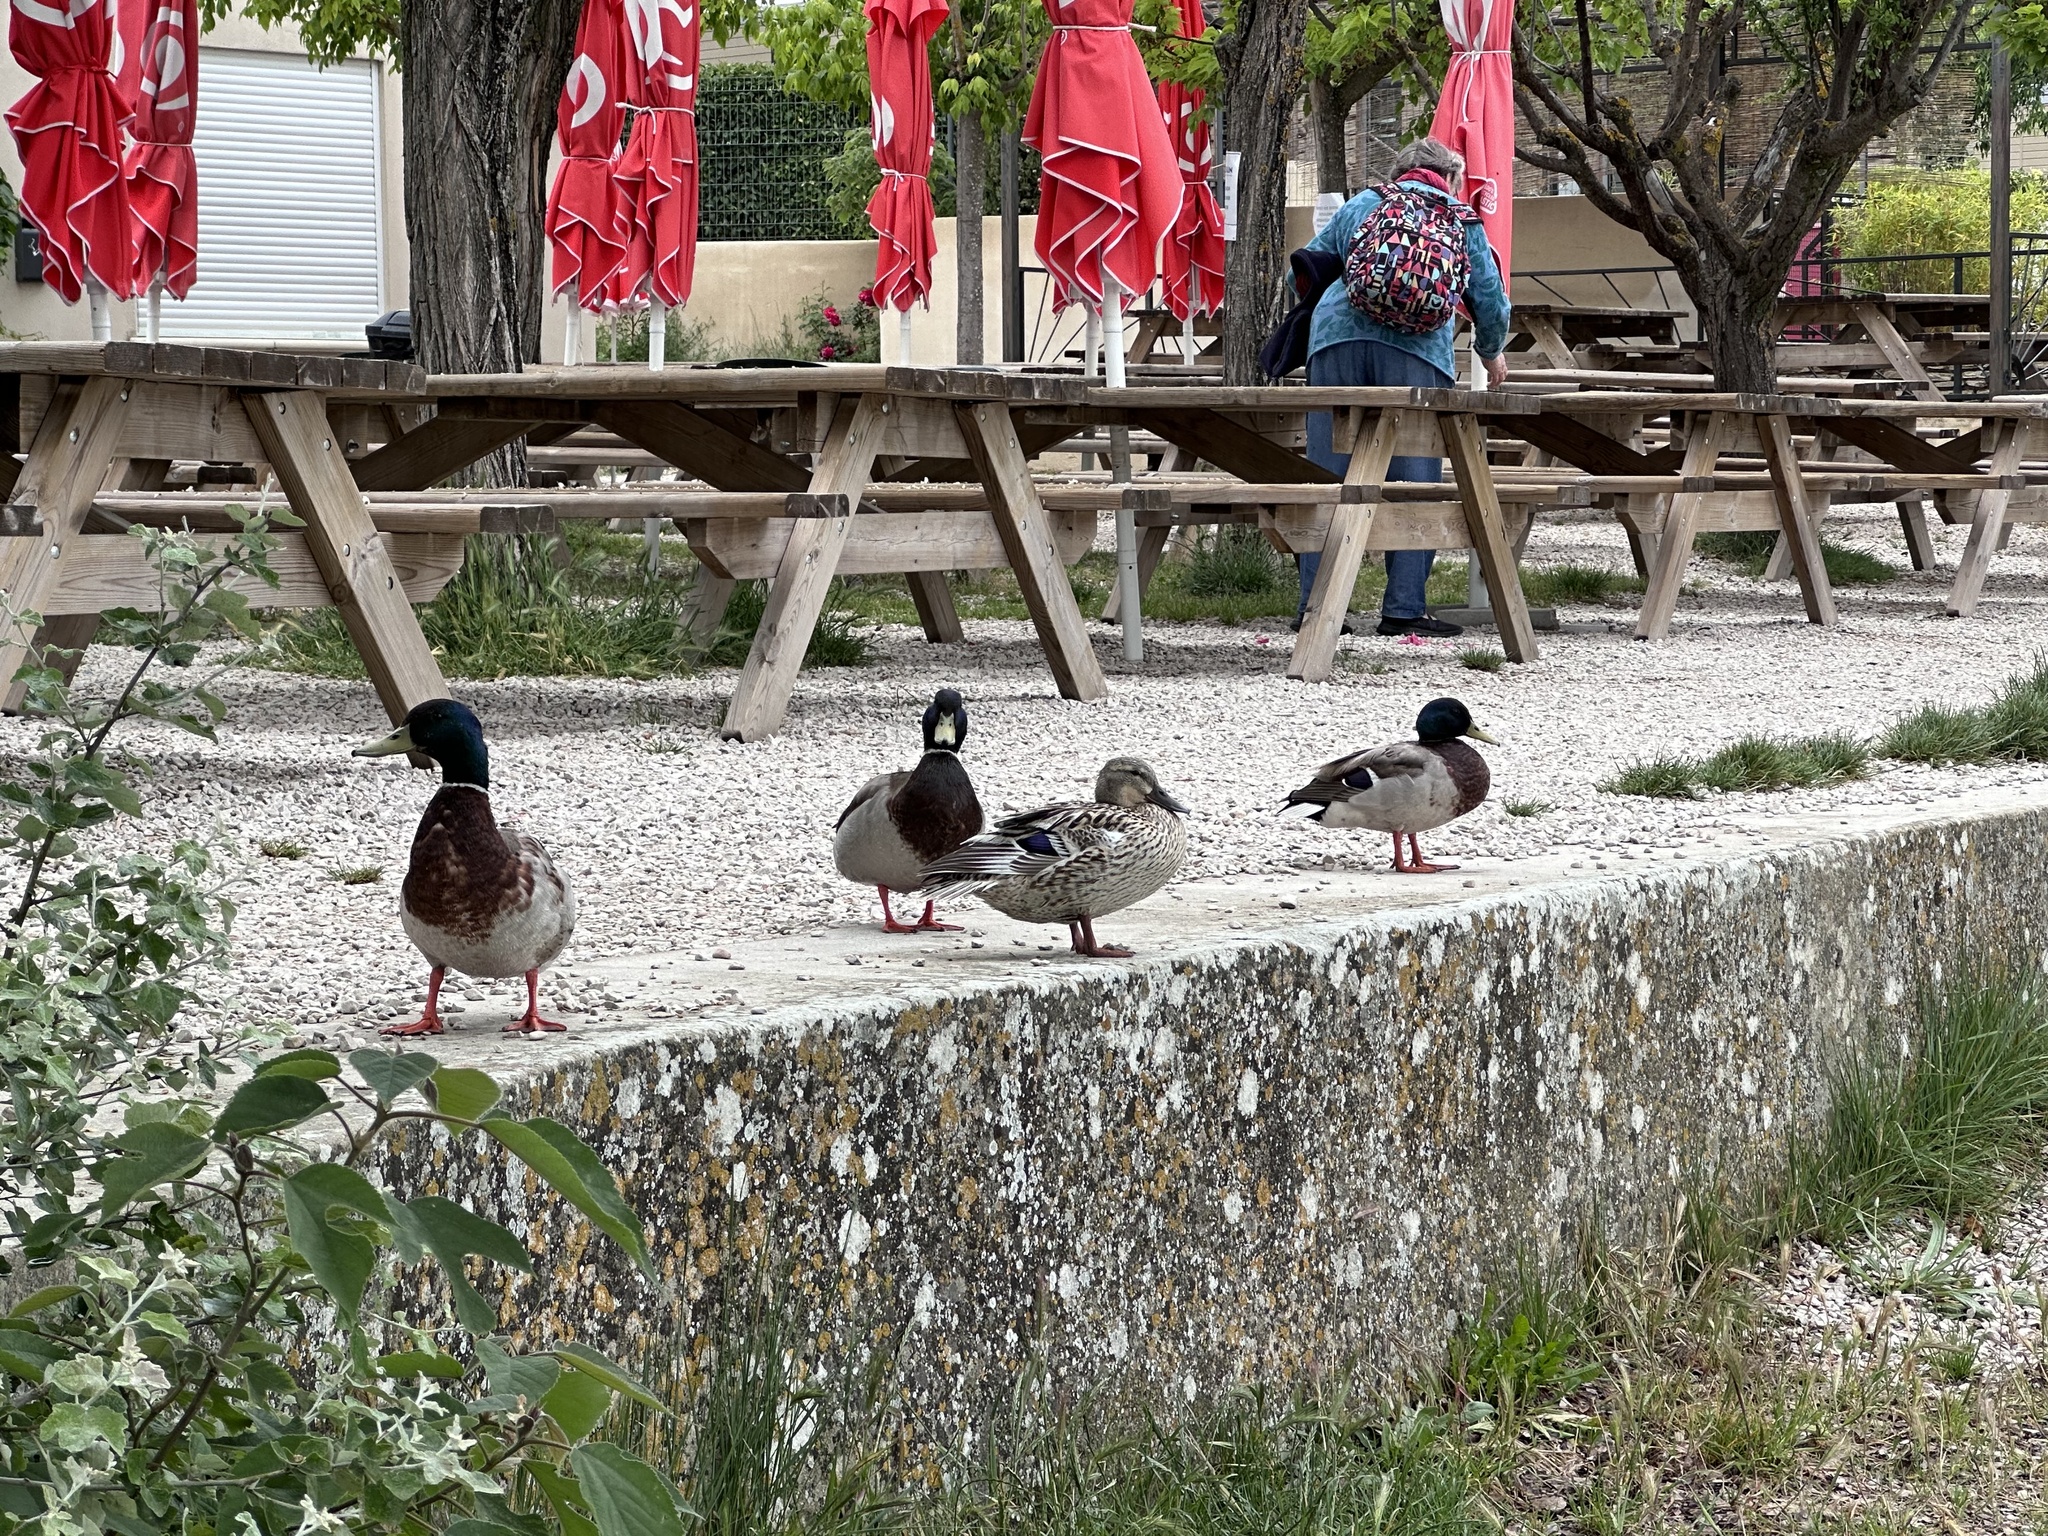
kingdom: Animalia
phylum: Chordata
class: Aves
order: Anseriformes
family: Anatidae
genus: Anas
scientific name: Anas platyrhynchos
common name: Mallard
